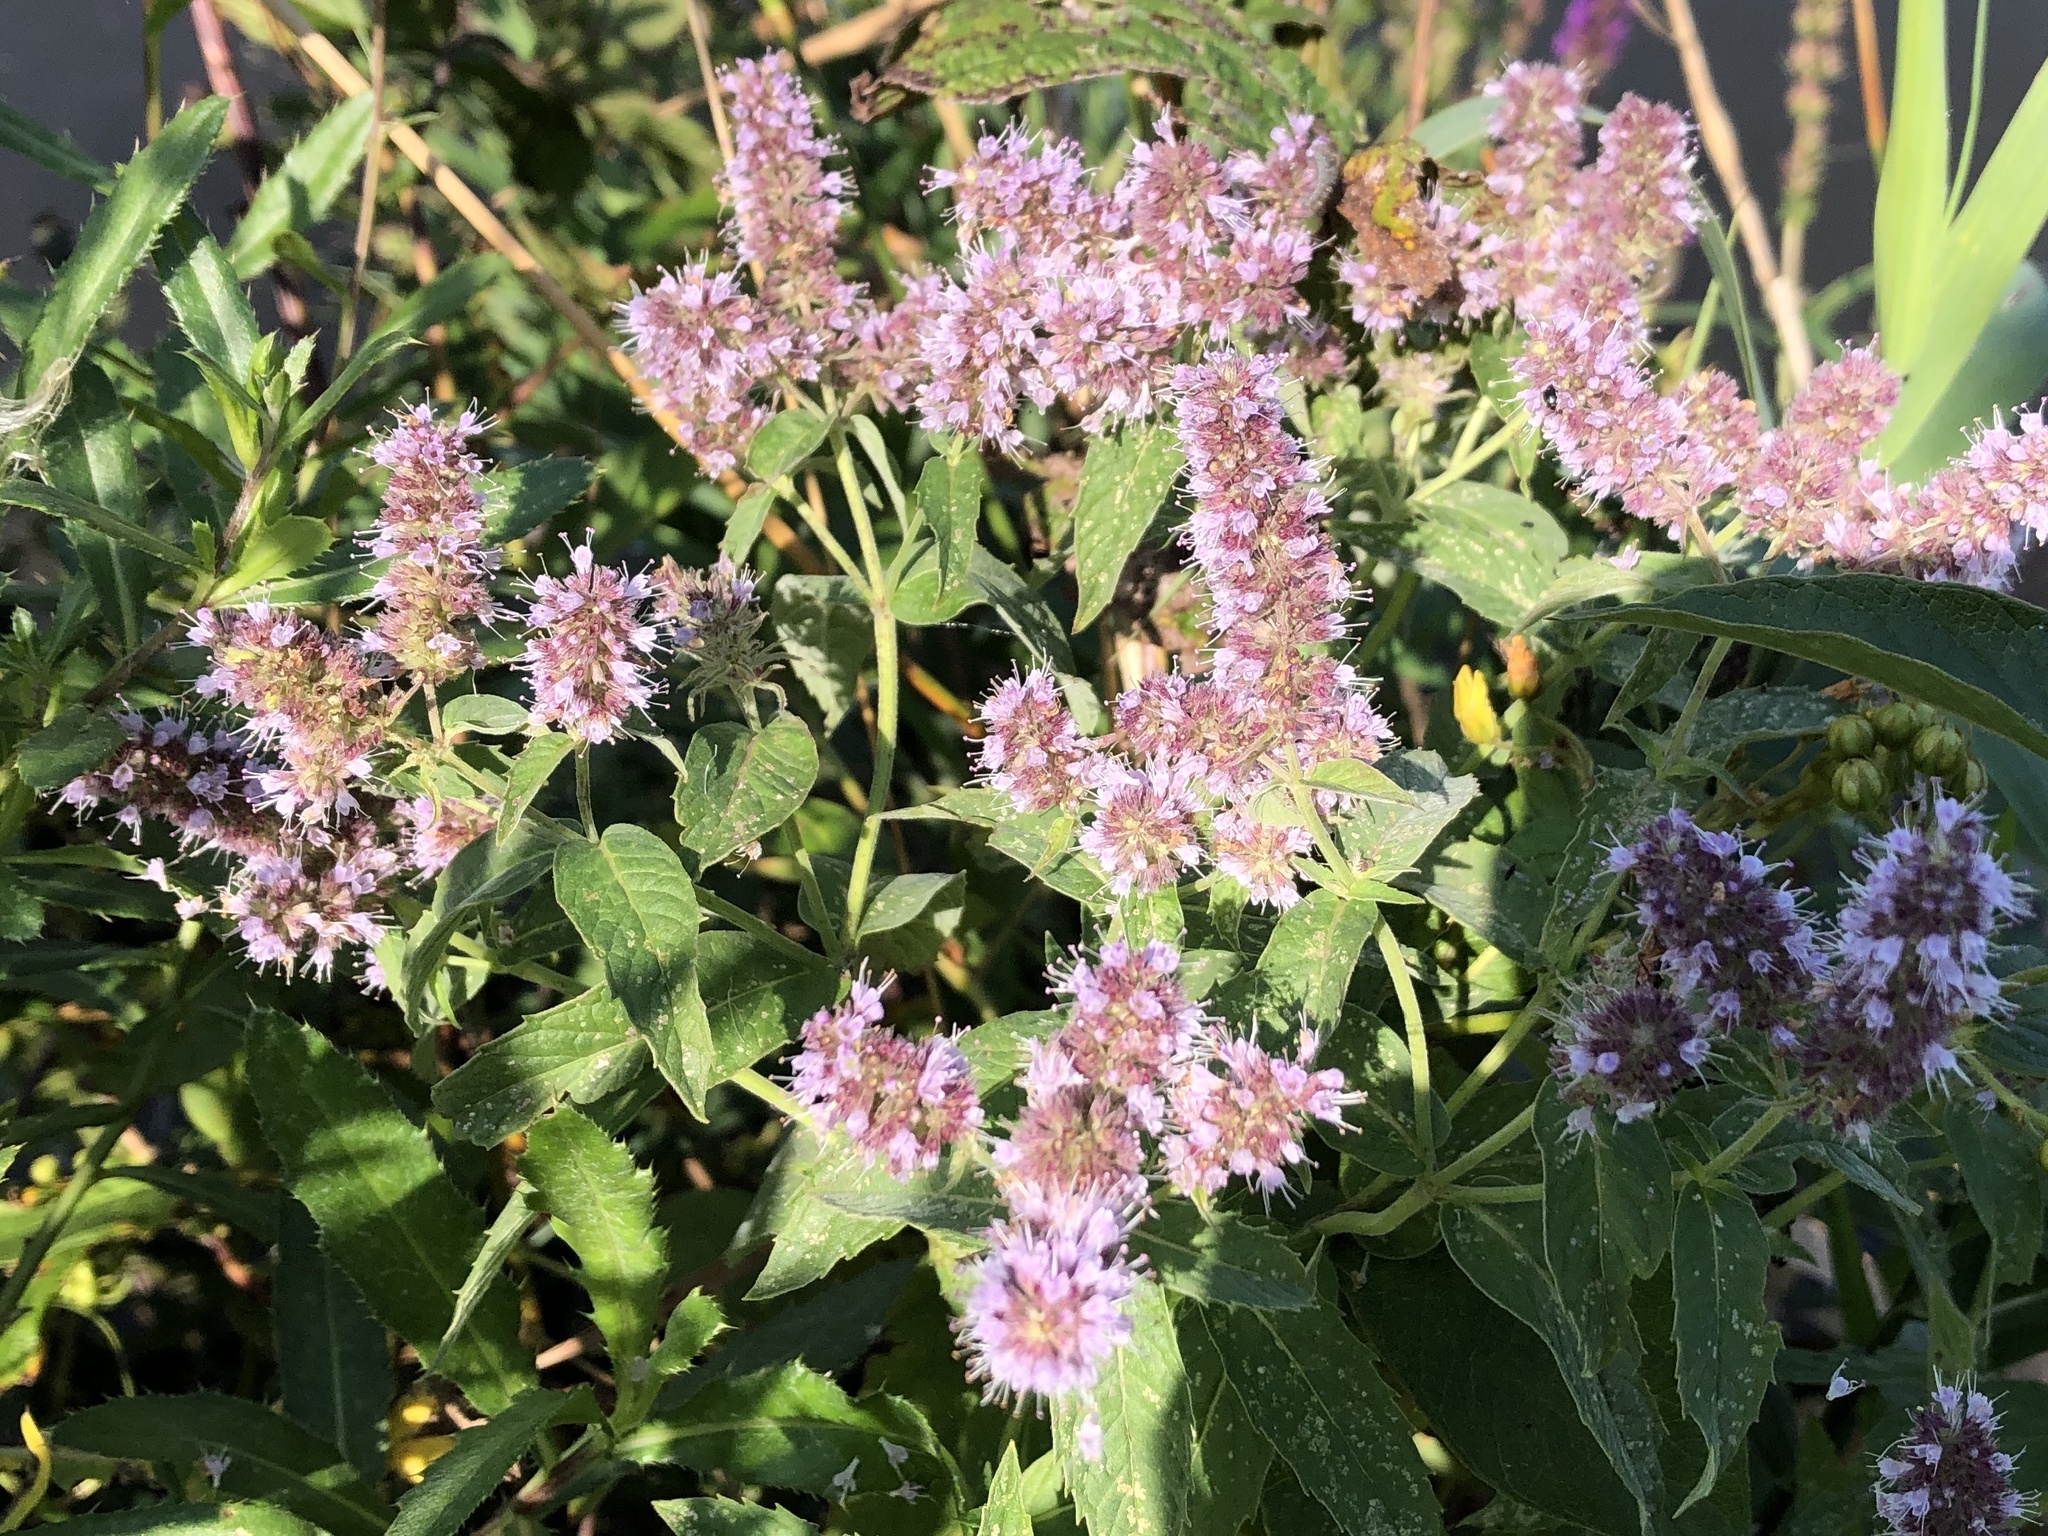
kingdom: Plantae
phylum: Tracheophyta
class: Magnoliopsida
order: Lamiales
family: Lamiaceae
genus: Mentha
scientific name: Mentha longifolia
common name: Horse mint
